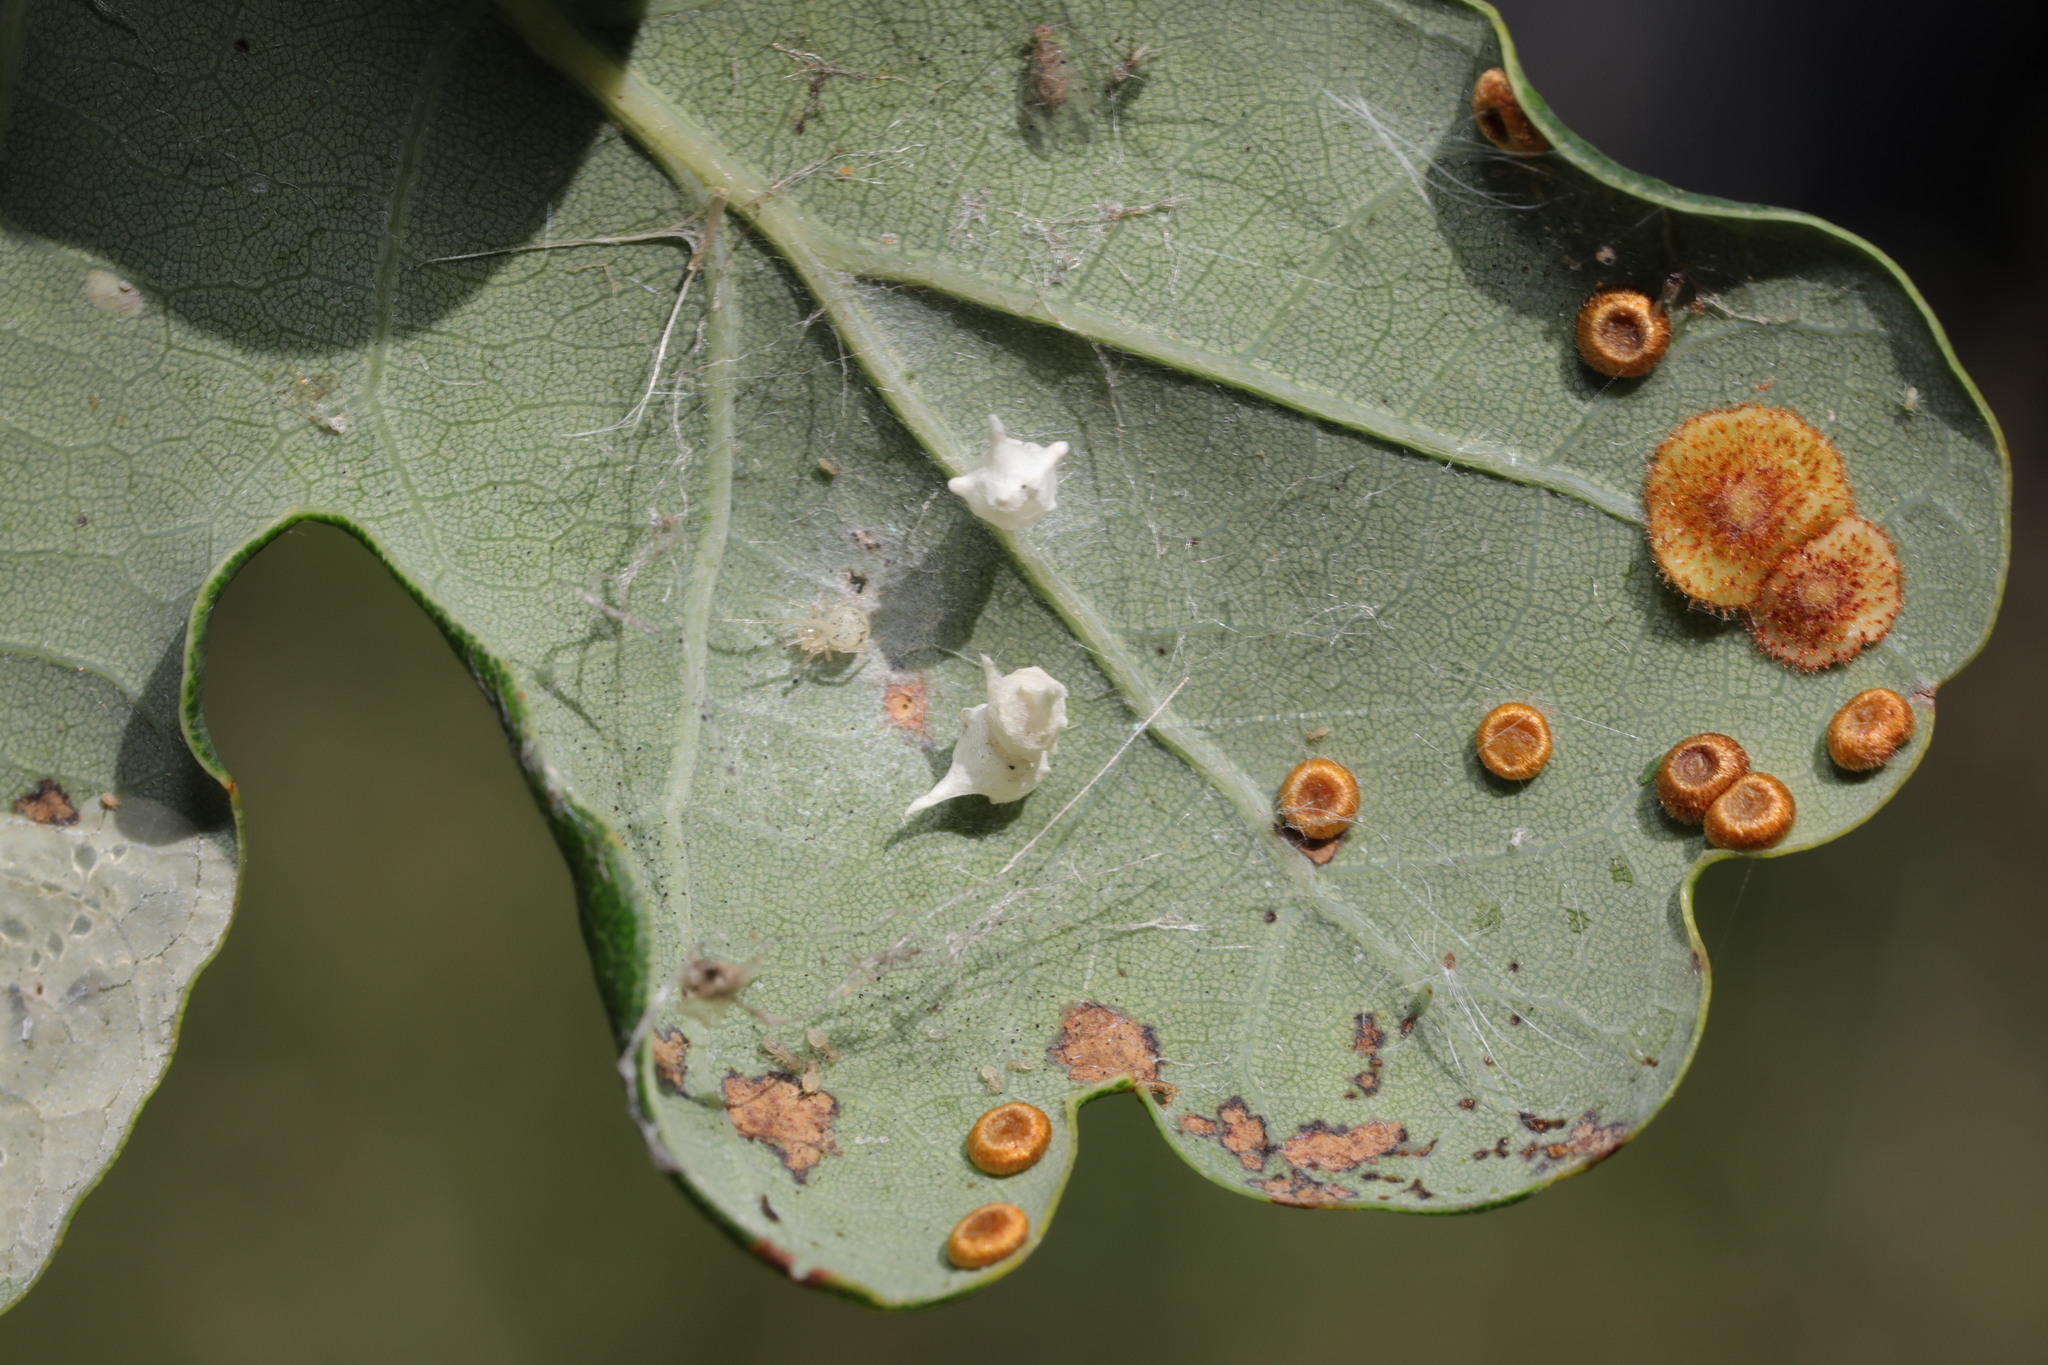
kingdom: Animalia
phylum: Arthropoda
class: Insecta
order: Hymenoptera
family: Cynipidae
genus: Neuroterus
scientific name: Neuroterus quercusbaccarum
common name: Common spangle gall
